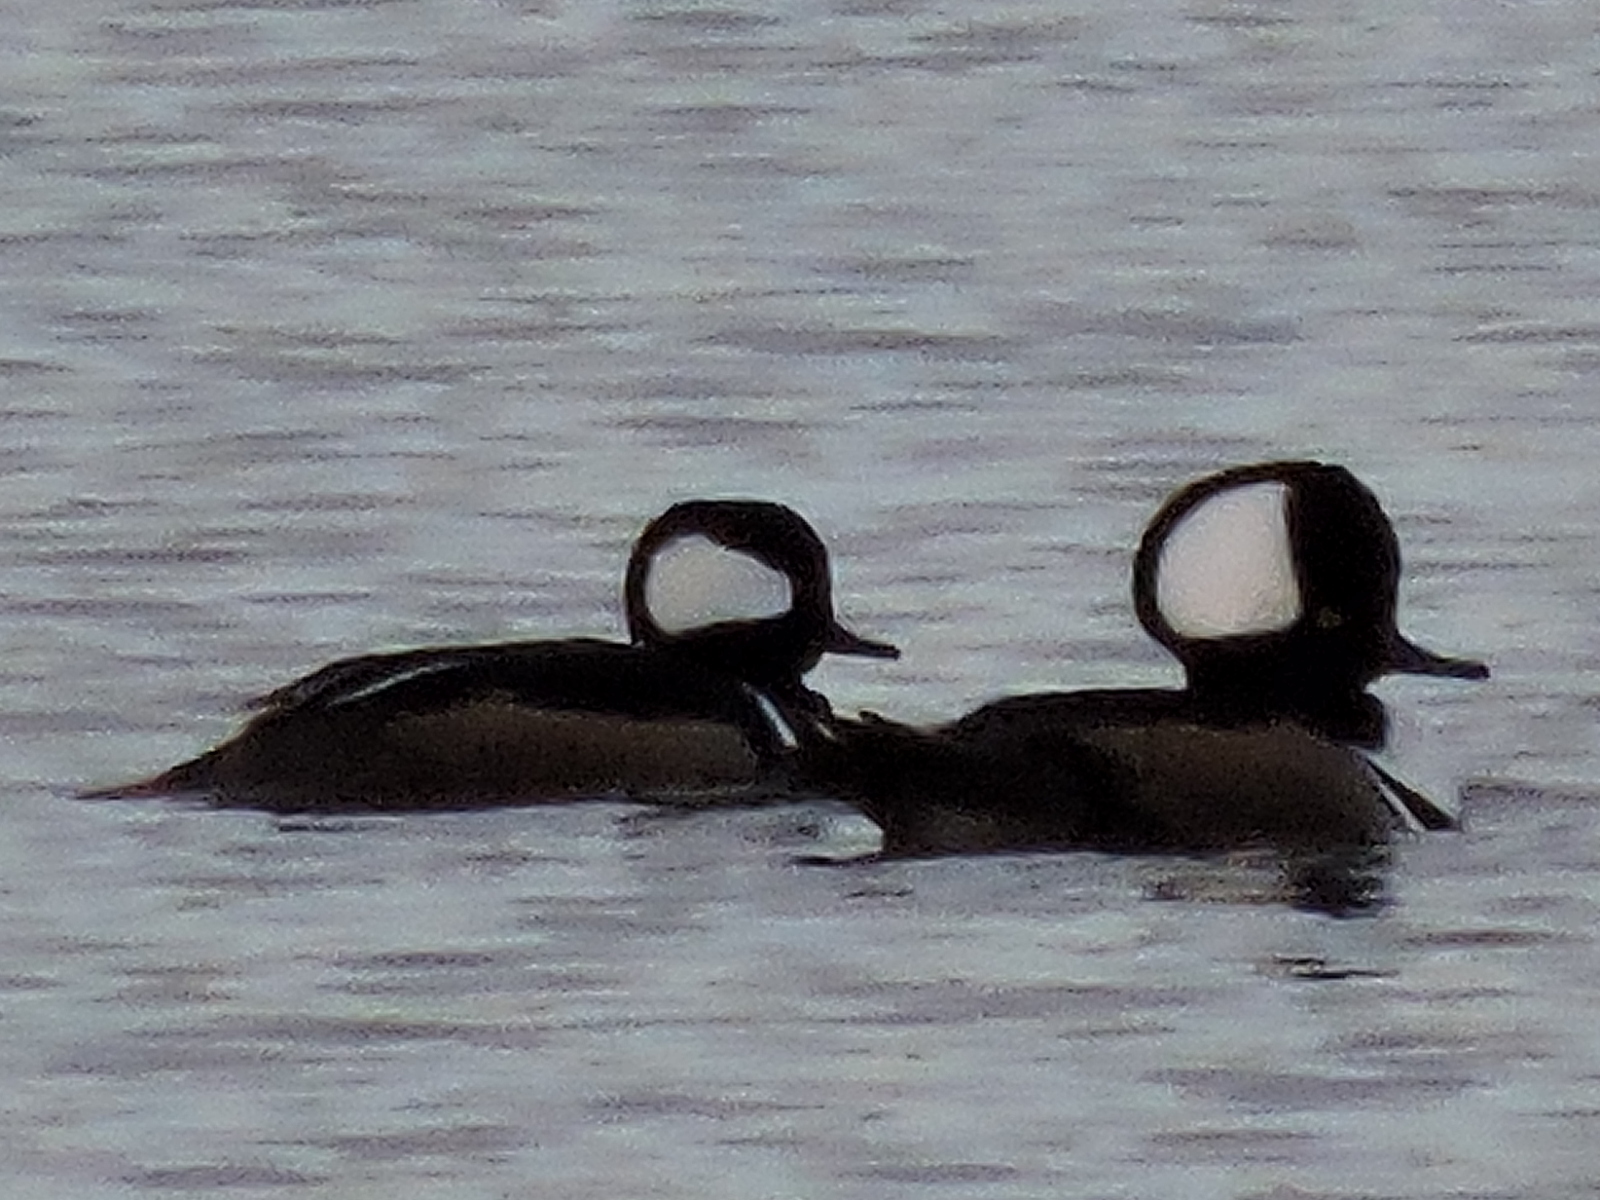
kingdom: Animalia
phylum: Chordata
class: Aves
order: Anseriformes
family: Anatidae
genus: Lophodytes
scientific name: Lophodytes cucullatus
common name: Hooded merganser
